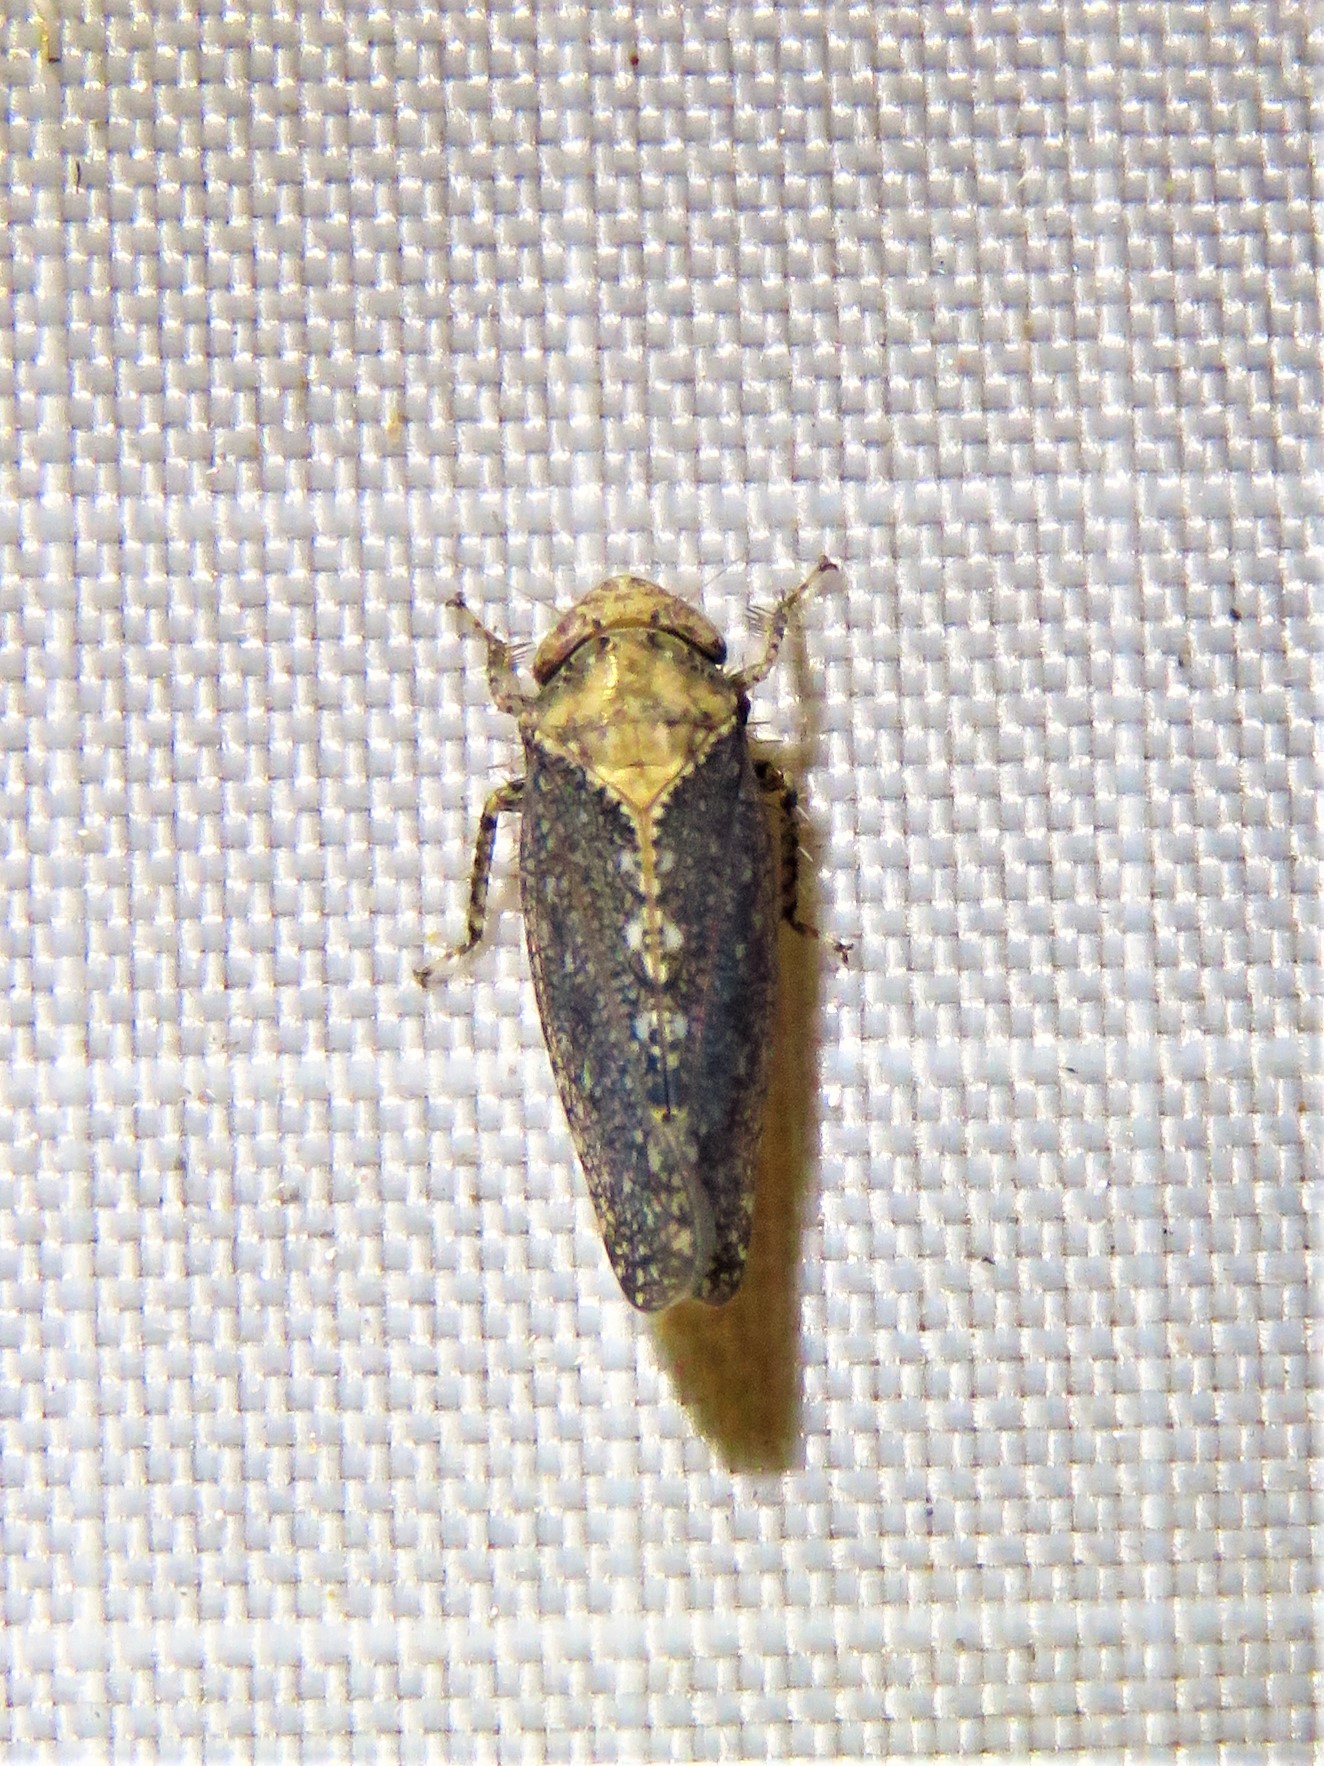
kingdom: Animalia
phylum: Arthropoda
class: Insecta
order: Hemiptera
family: Cicadellidae
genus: Excultanus
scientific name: Excultanus excultus
